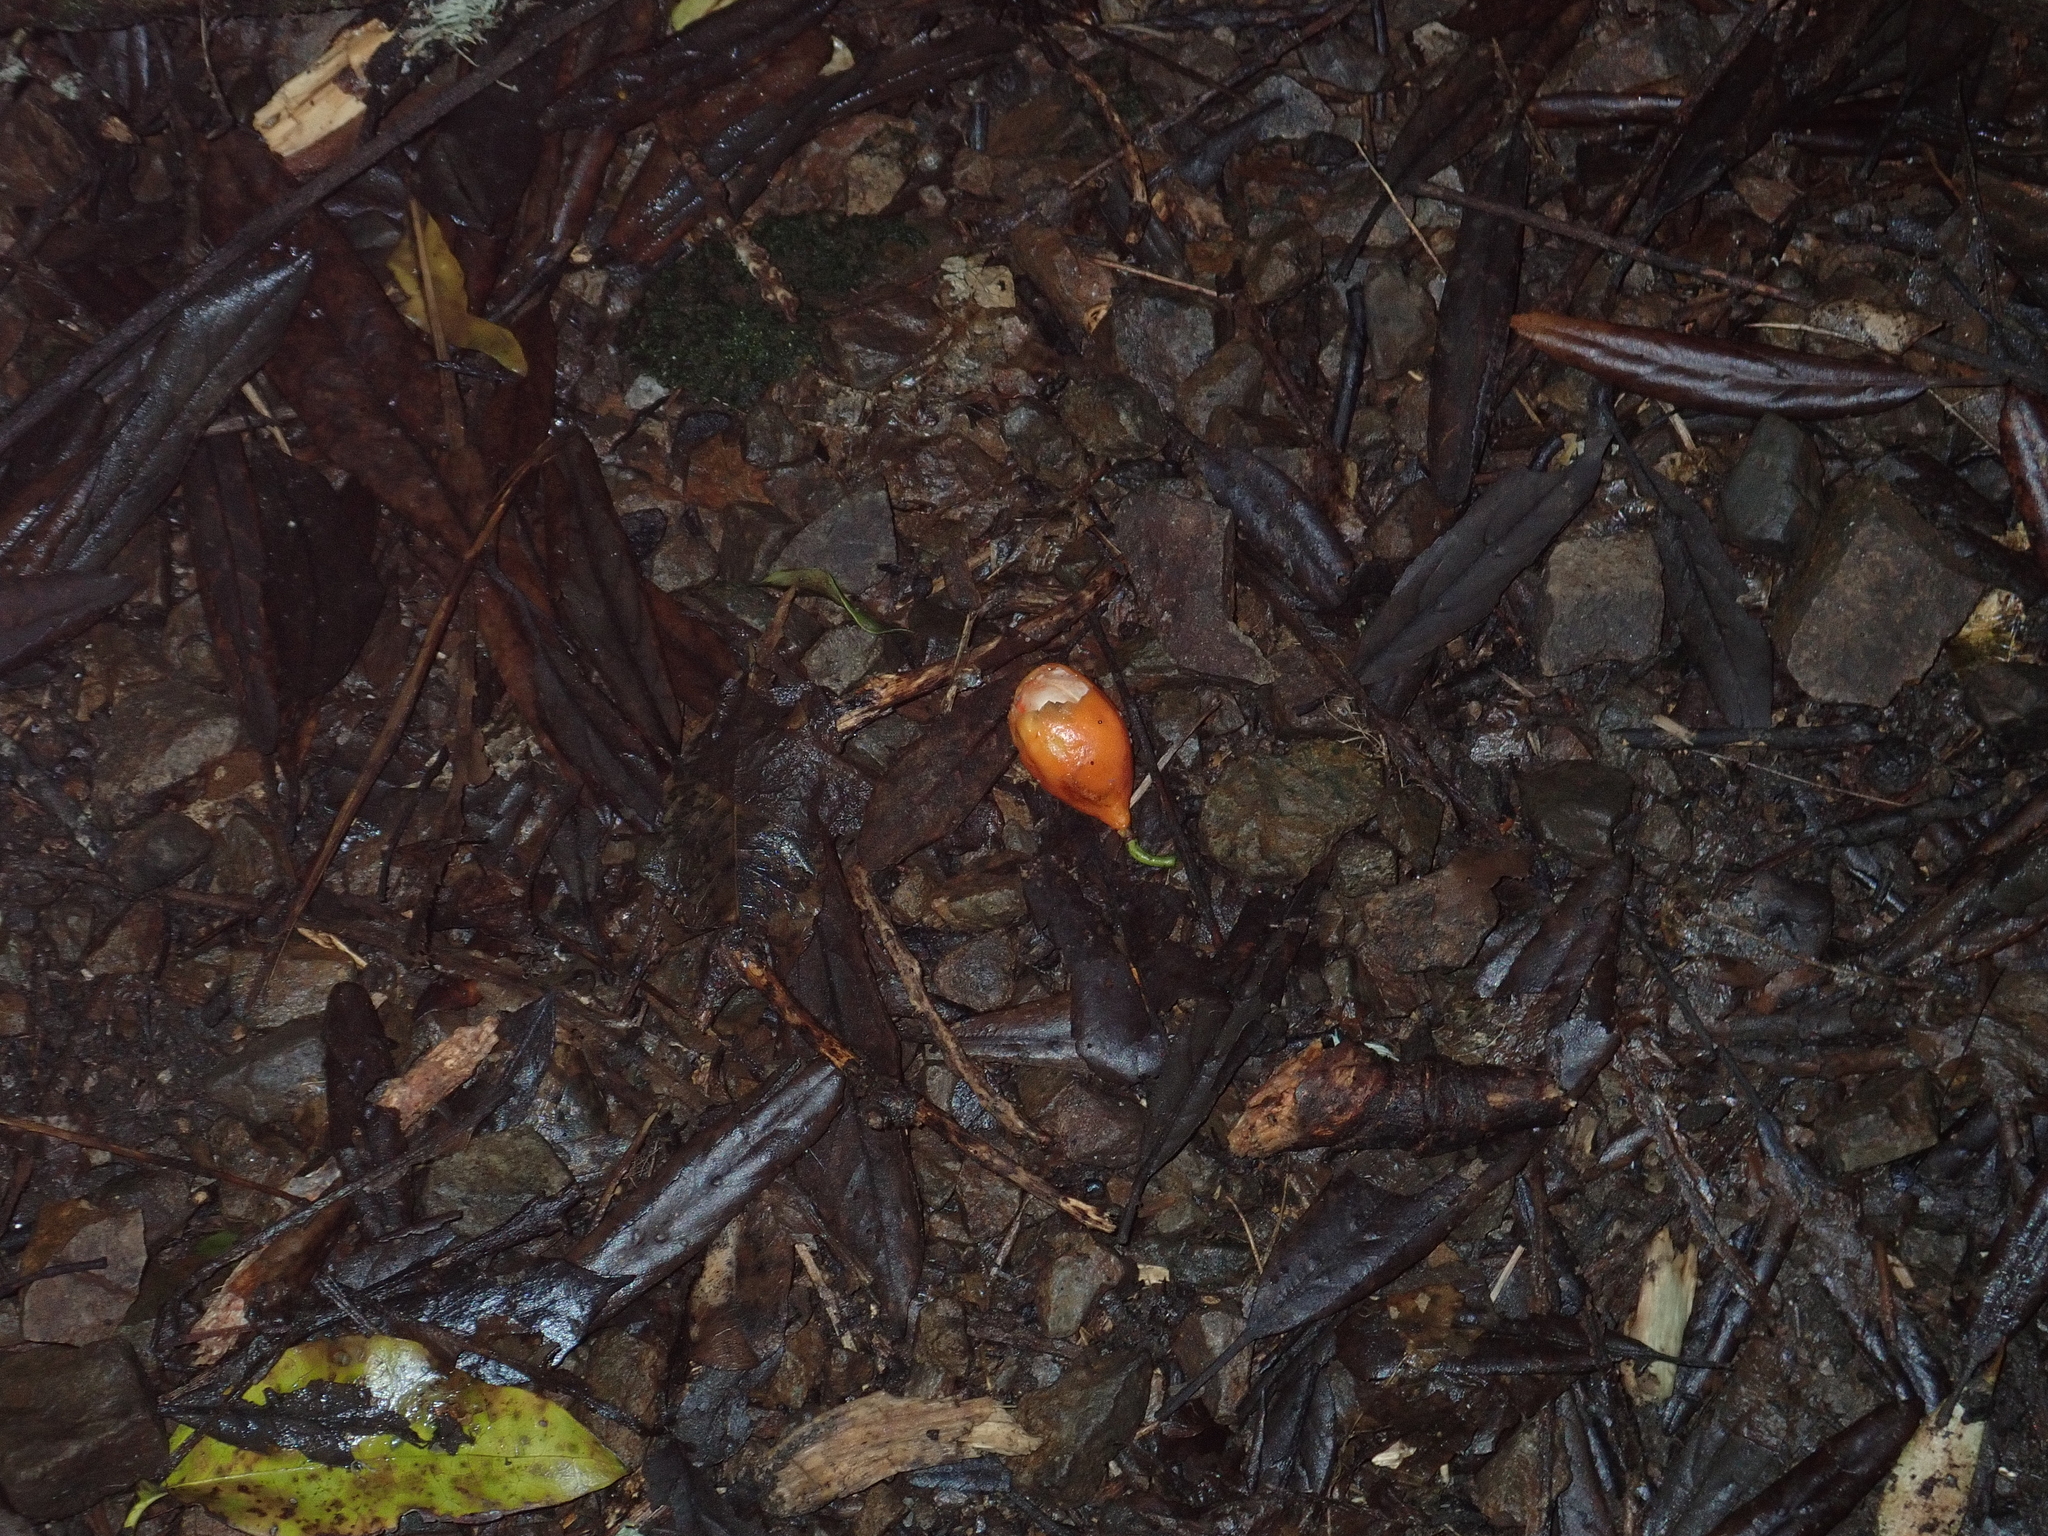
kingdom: Plantae
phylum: Tracheophyta
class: Magnoliopsida
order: Malpighiales
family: Passifloraceae
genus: Passiflora
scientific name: Passiflora tetrandra
